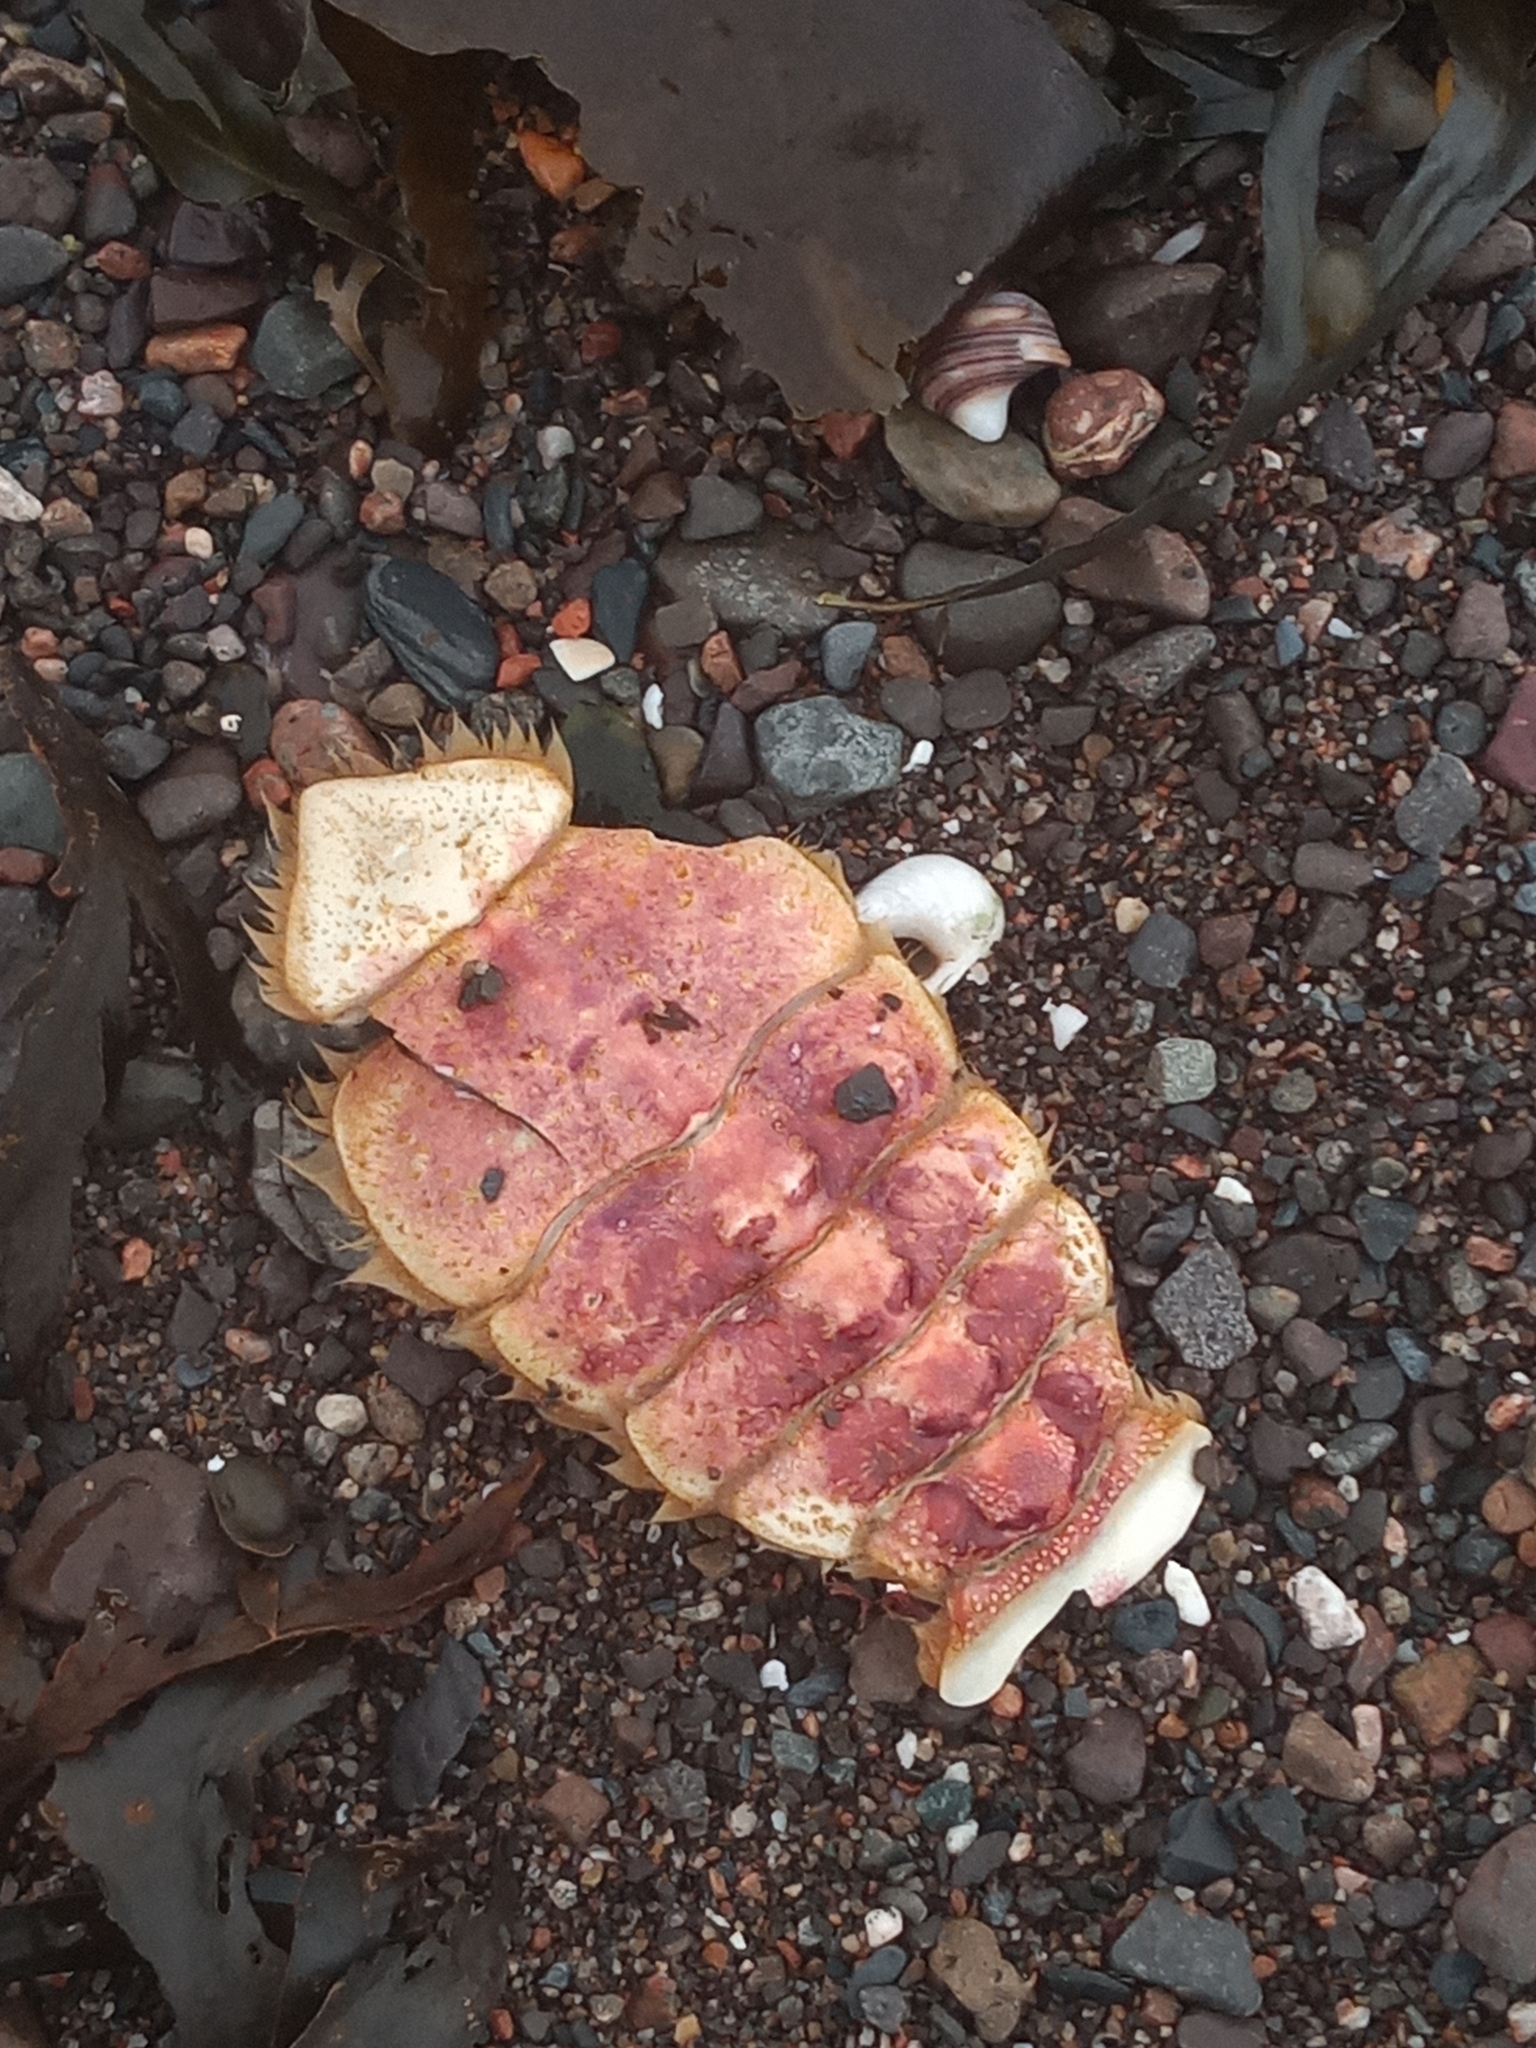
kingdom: Animalia
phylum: Arthropoda
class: Malacostraca
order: Decapoda
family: Cancridae
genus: Cancer
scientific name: Cancer pagurus
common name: Edible crab
